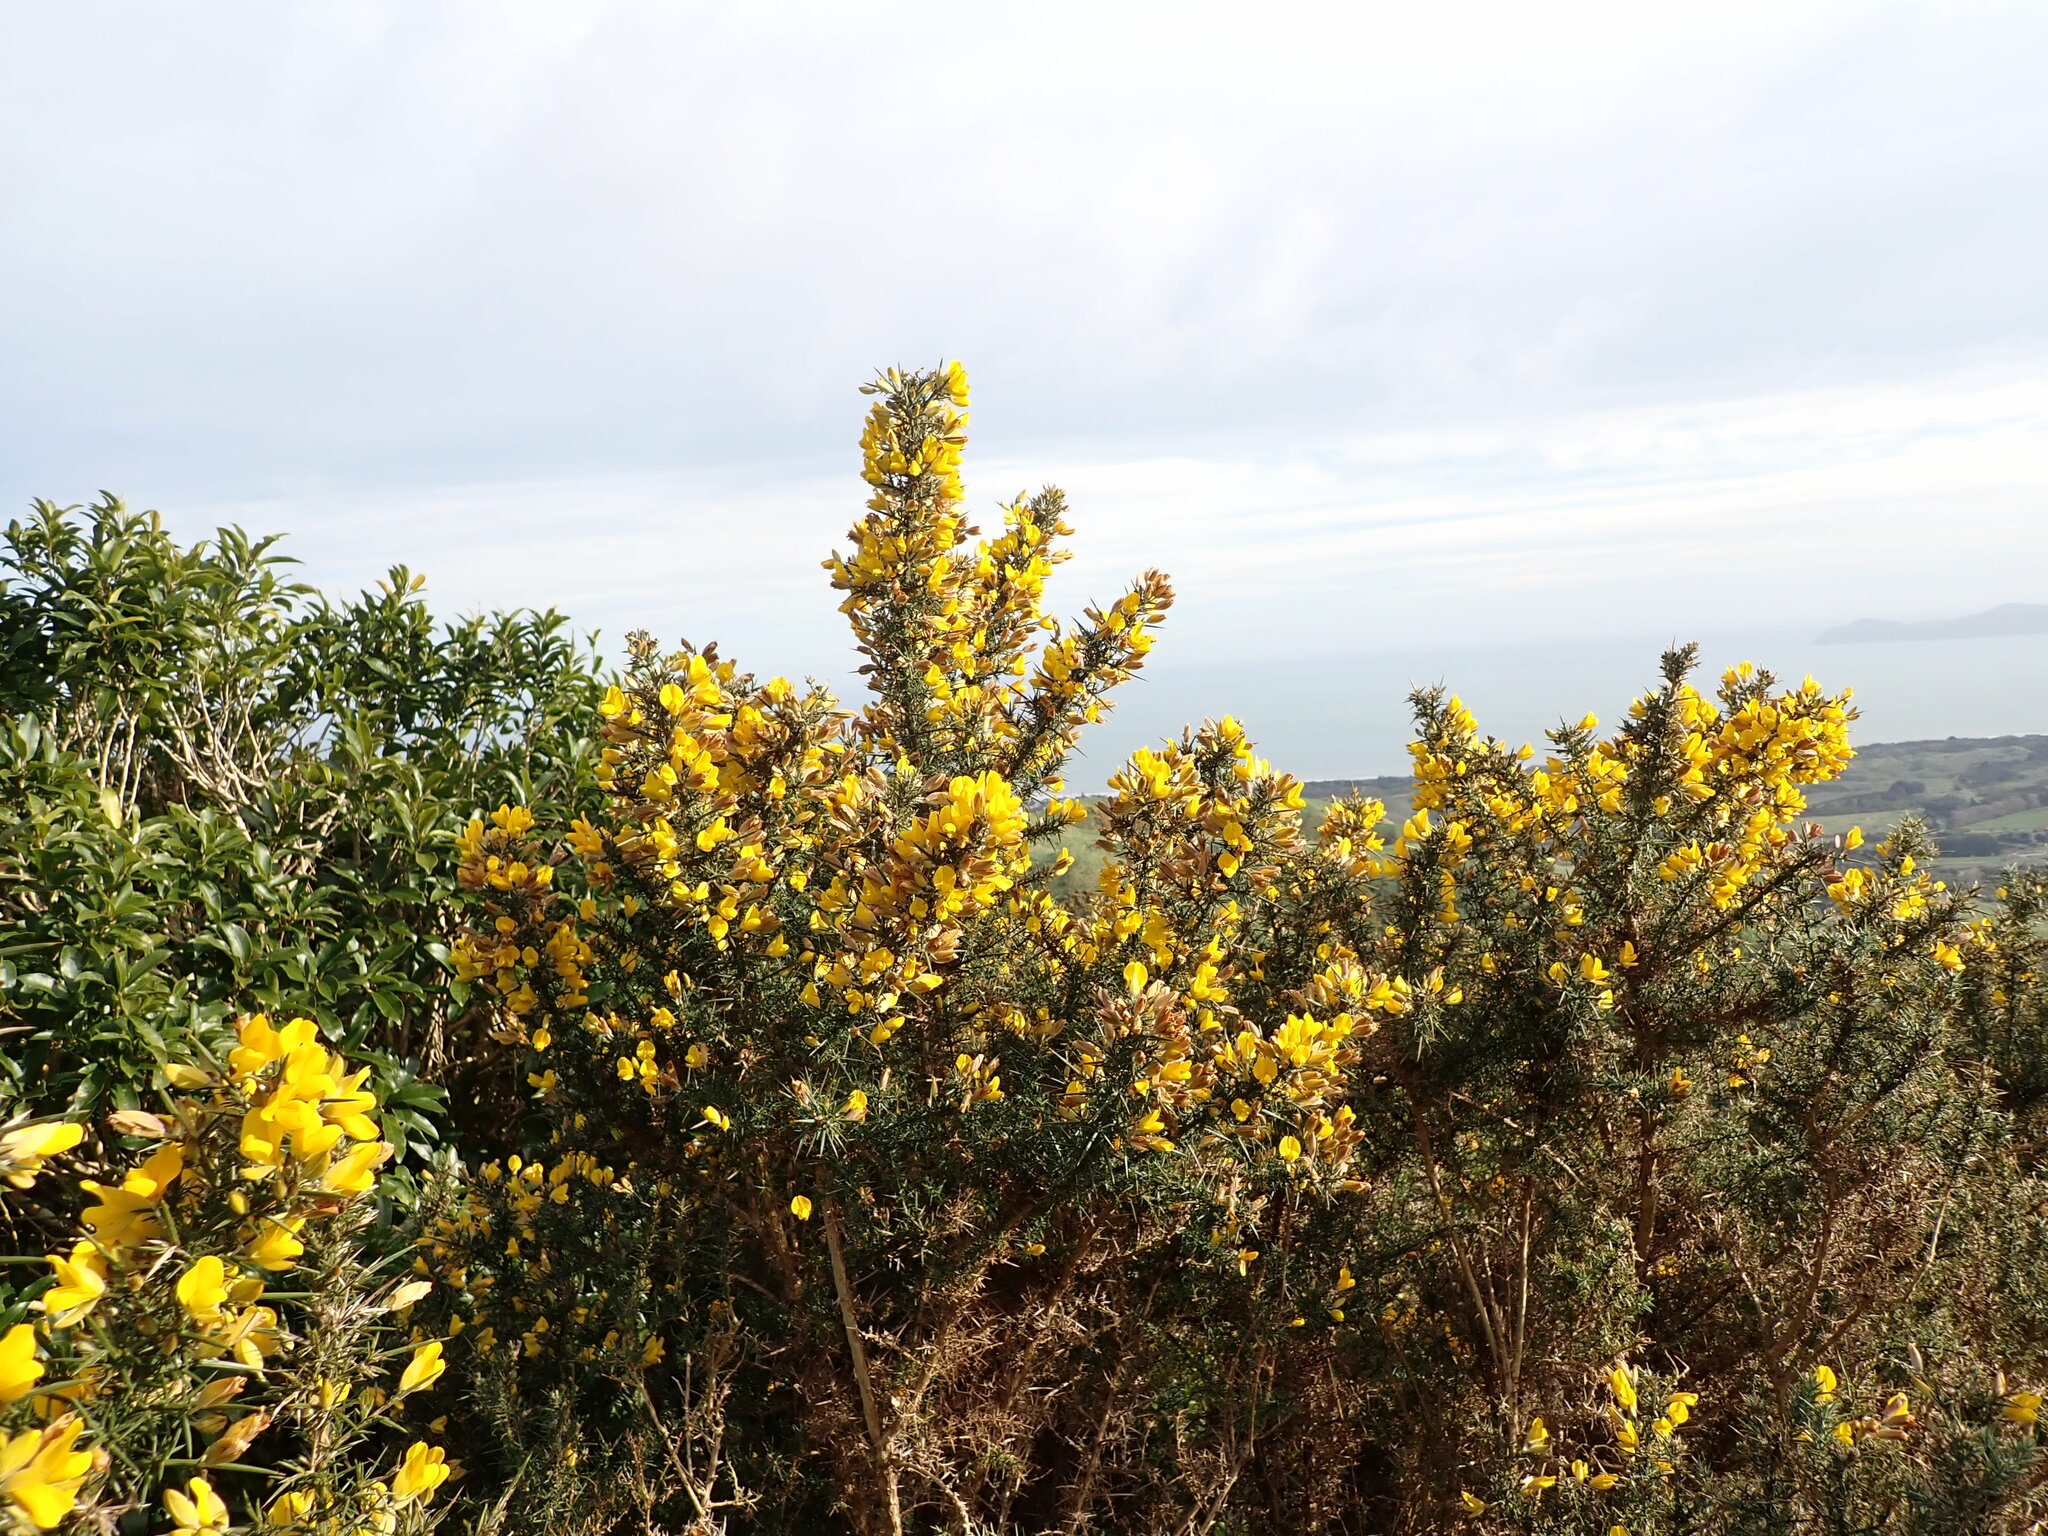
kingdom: Plantae
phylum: Tracheophyta
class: Magnoliopsida
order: Fabales
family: Fabaceae
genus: Ulex
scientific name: Ulex europaeus
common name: Common gorse
